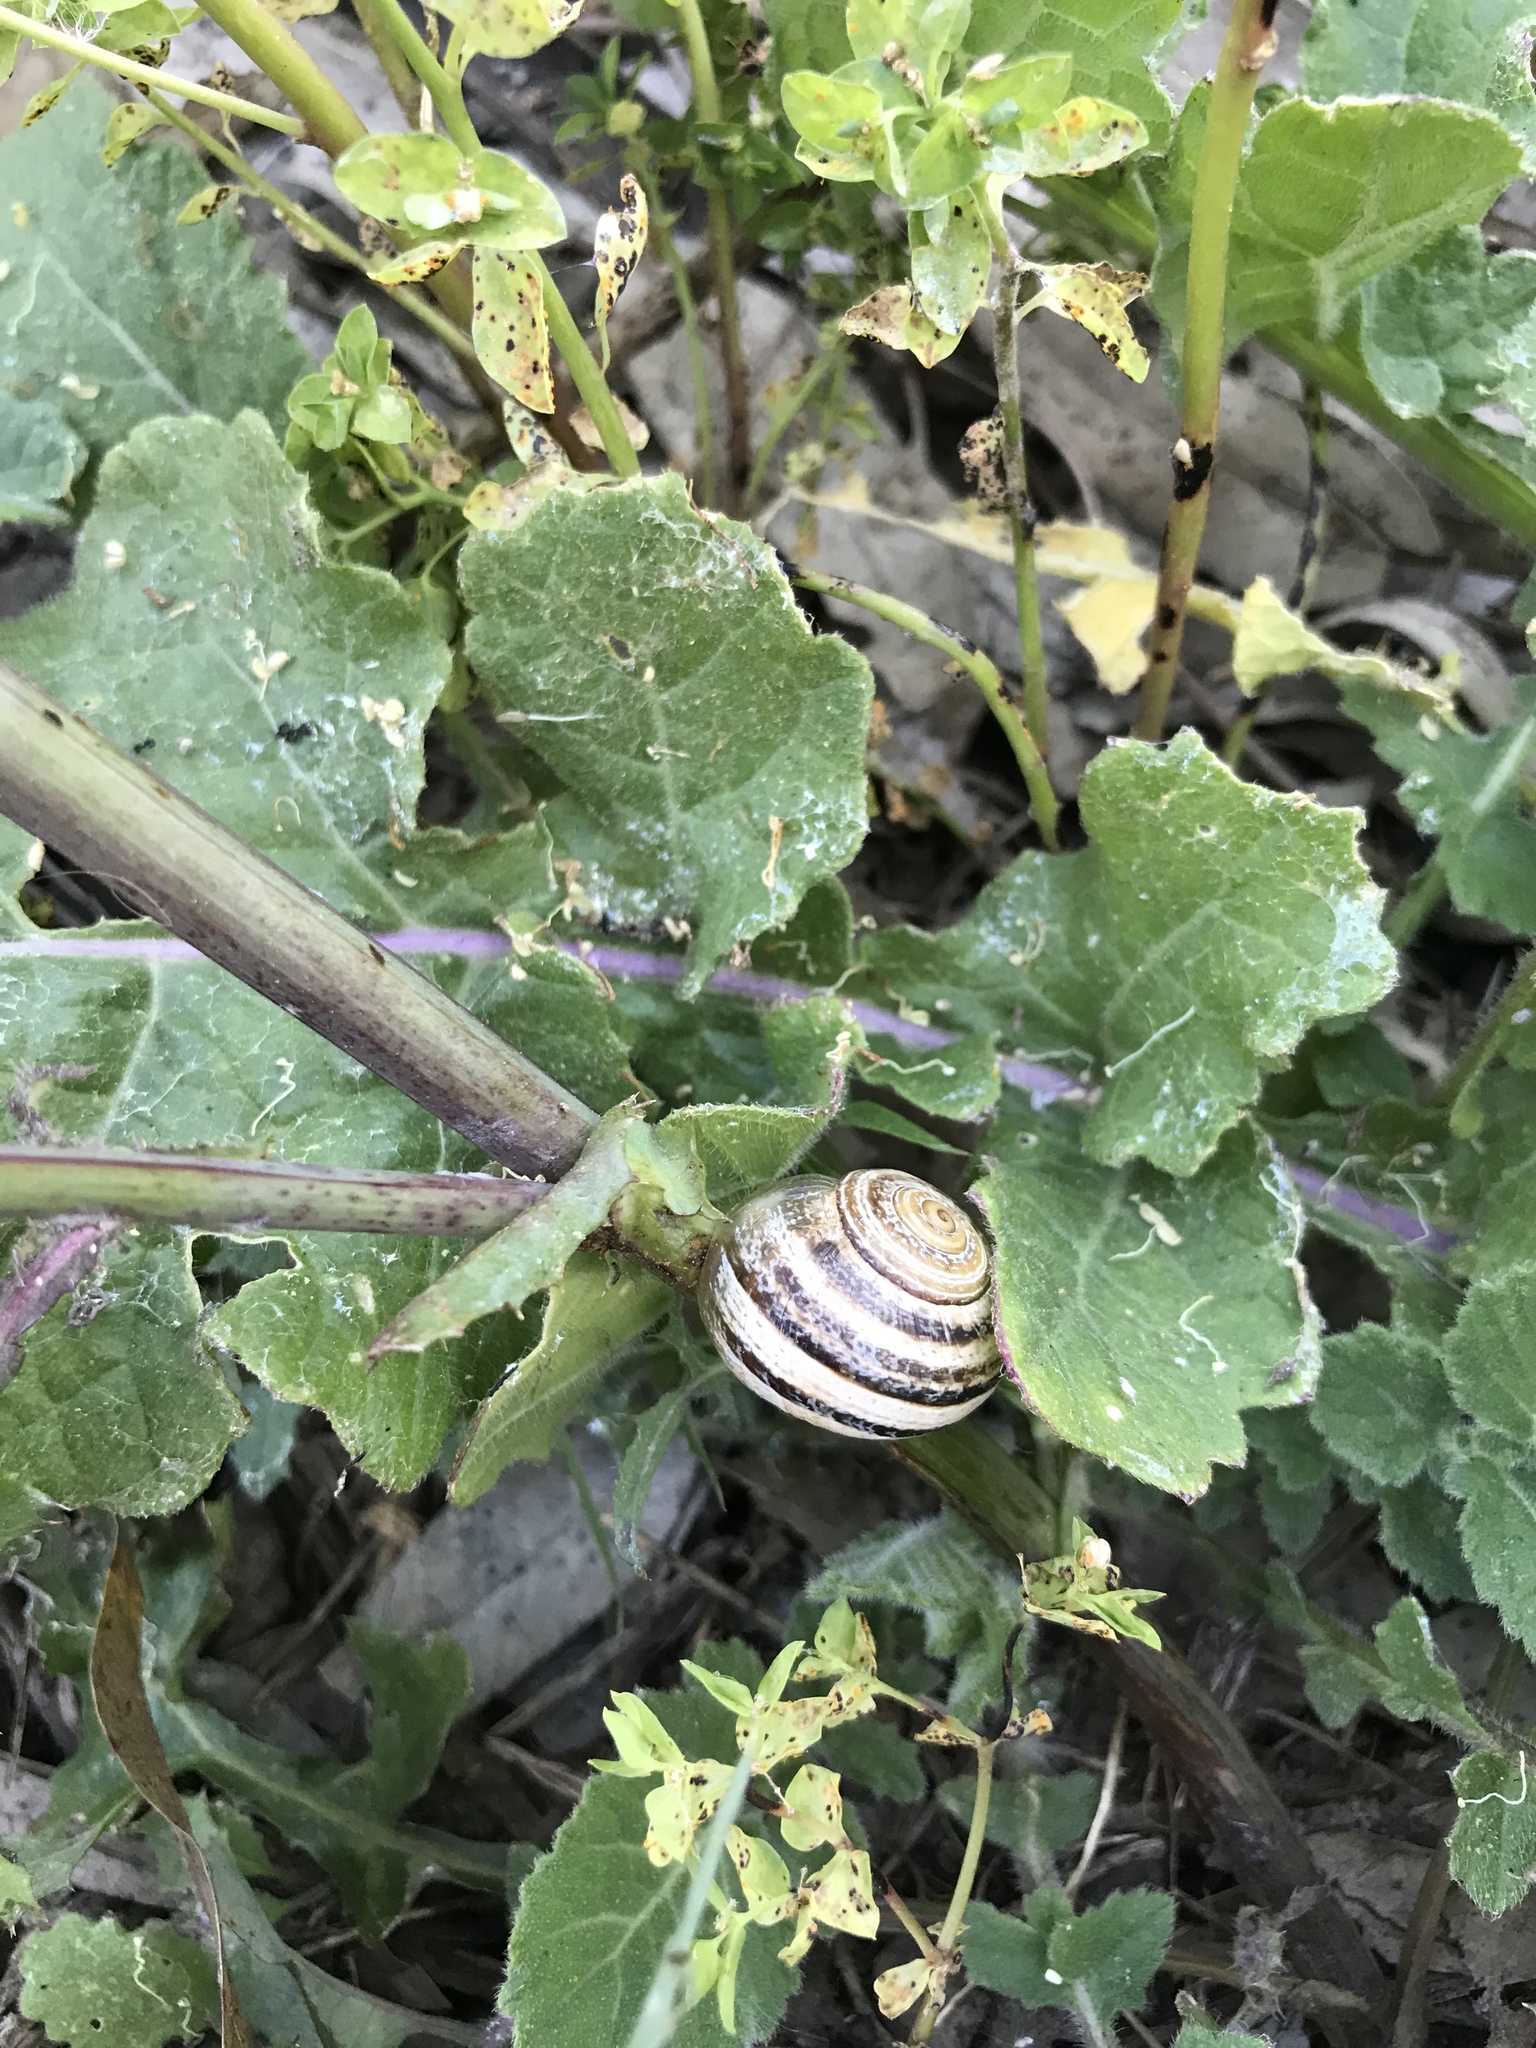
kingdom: Animalia
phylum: Mollusca
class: Gastropoda
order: Stylommatophora
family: Helicidae
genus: Otala
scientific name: Otala lactea
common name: Milk snail
